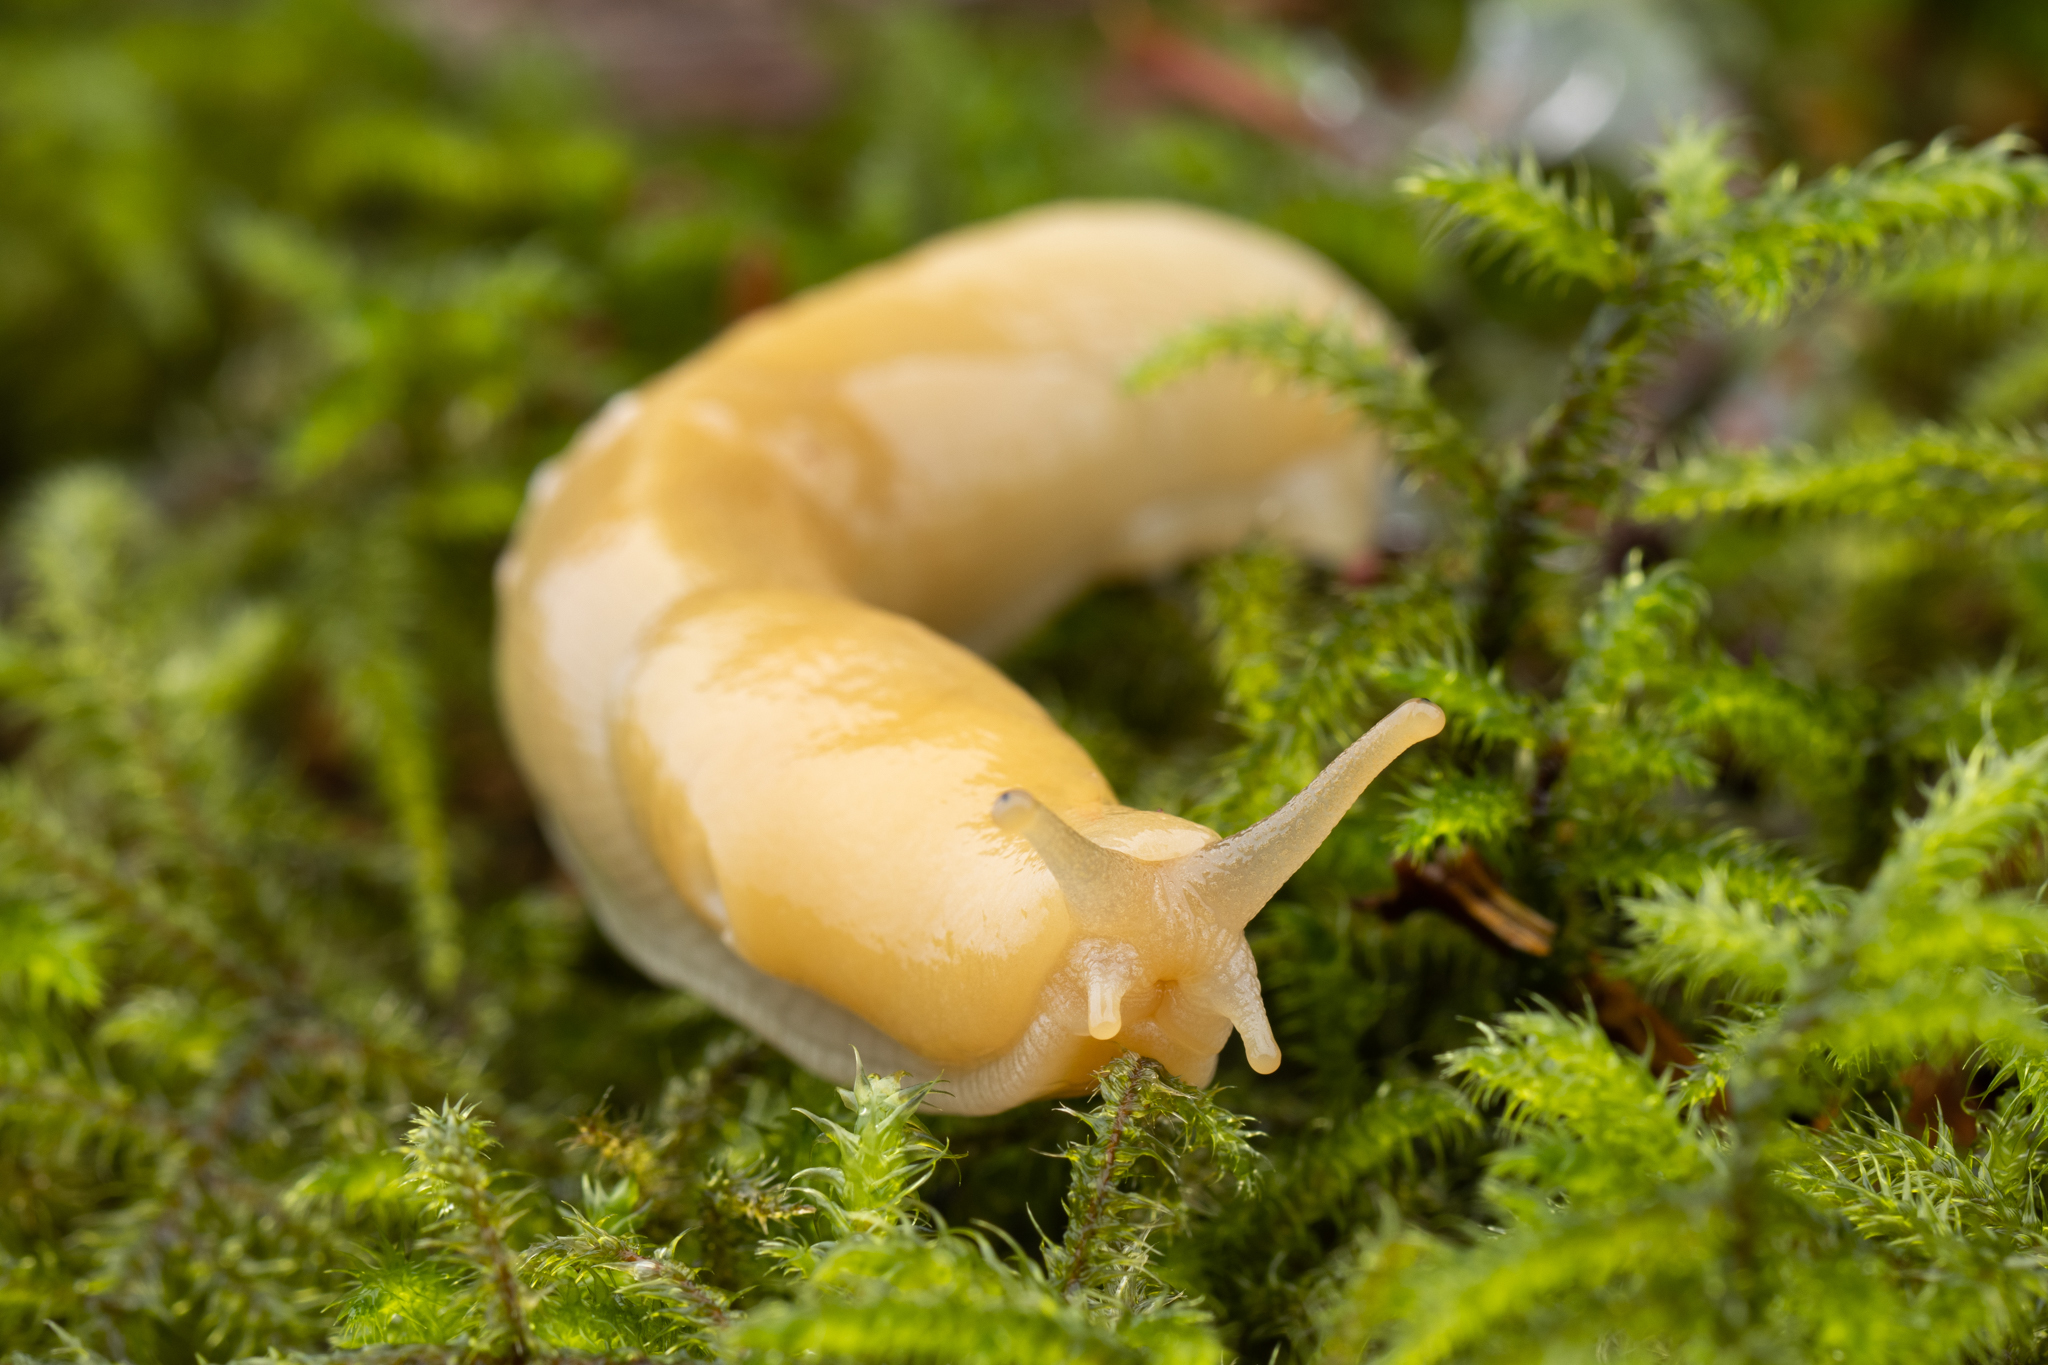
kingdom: Animalia
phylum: Mollusca
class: Gastropoda
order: Stylommatophora
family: Ariolimacidae
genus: Ariolimax
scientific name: Ariolimax columbianus
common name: Pacific banana slug
